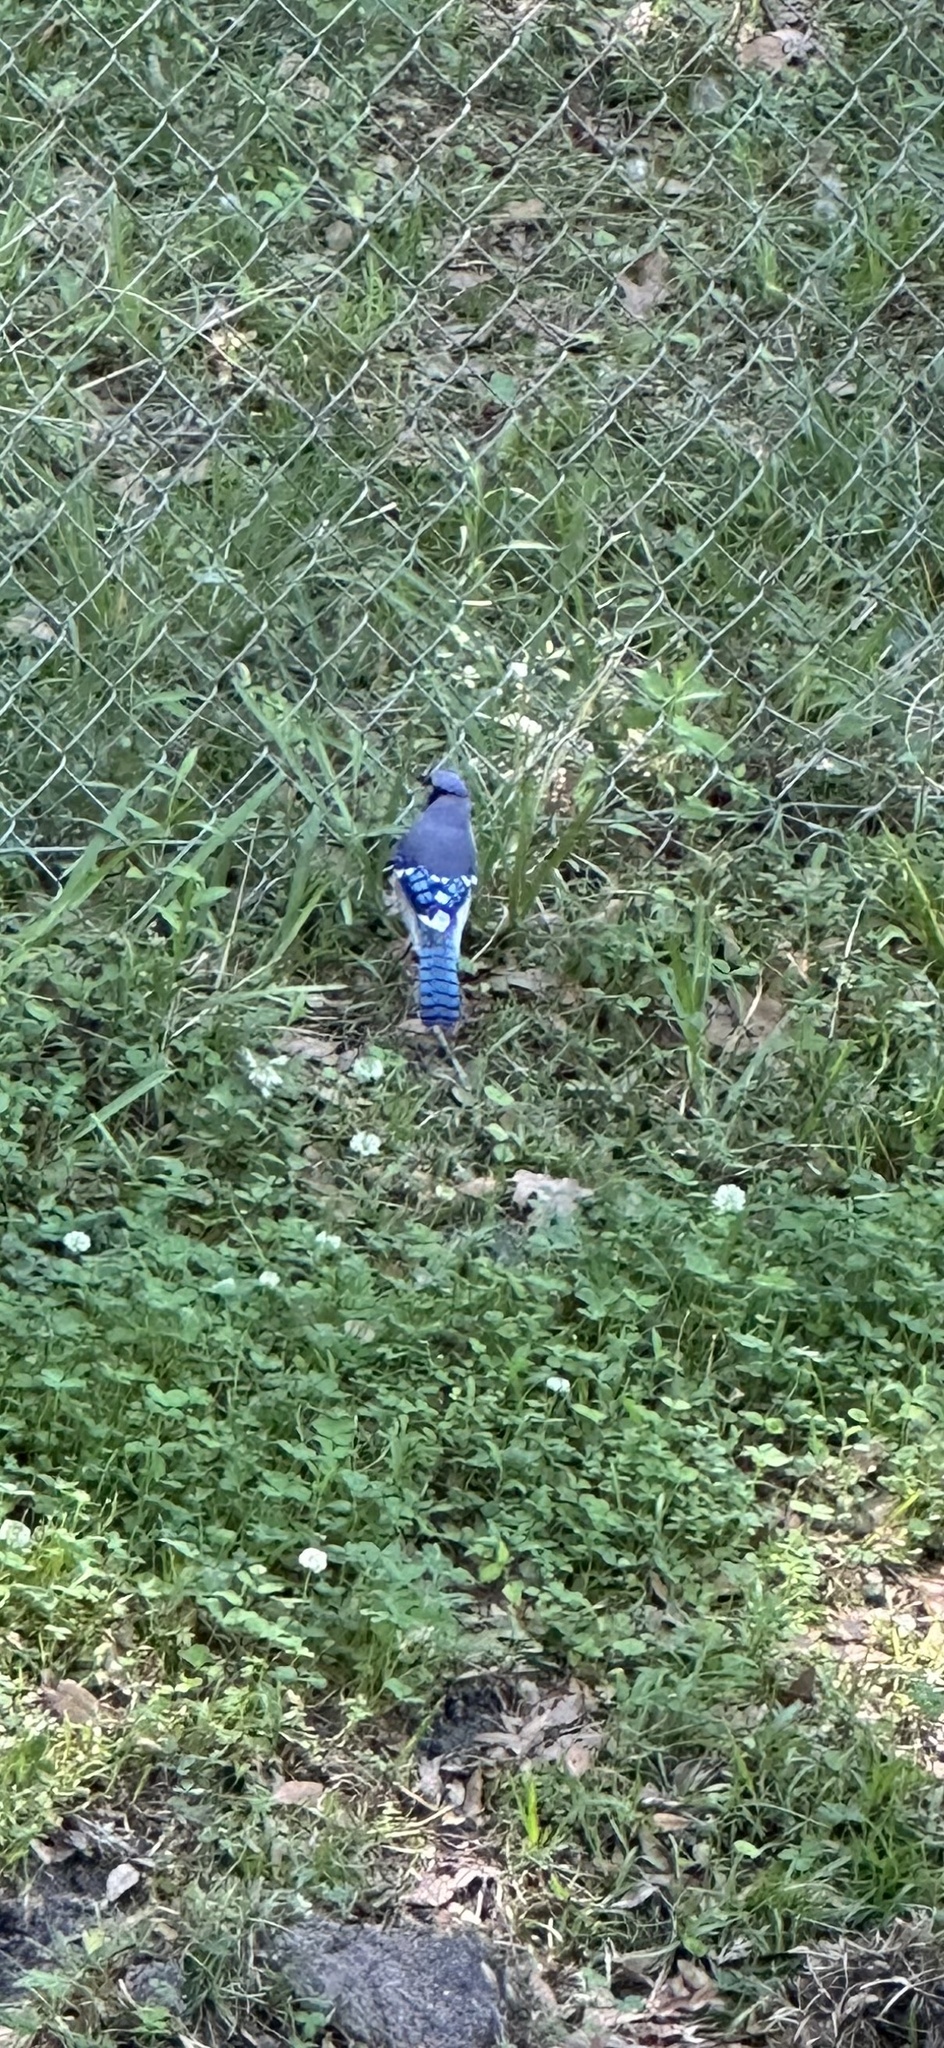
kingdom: Animalia
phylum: Chordata
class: Aves
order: Passeriformes
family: Corvidae
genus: Cyanocitta
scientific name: Cyanocitta cristata
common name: Blue jay
